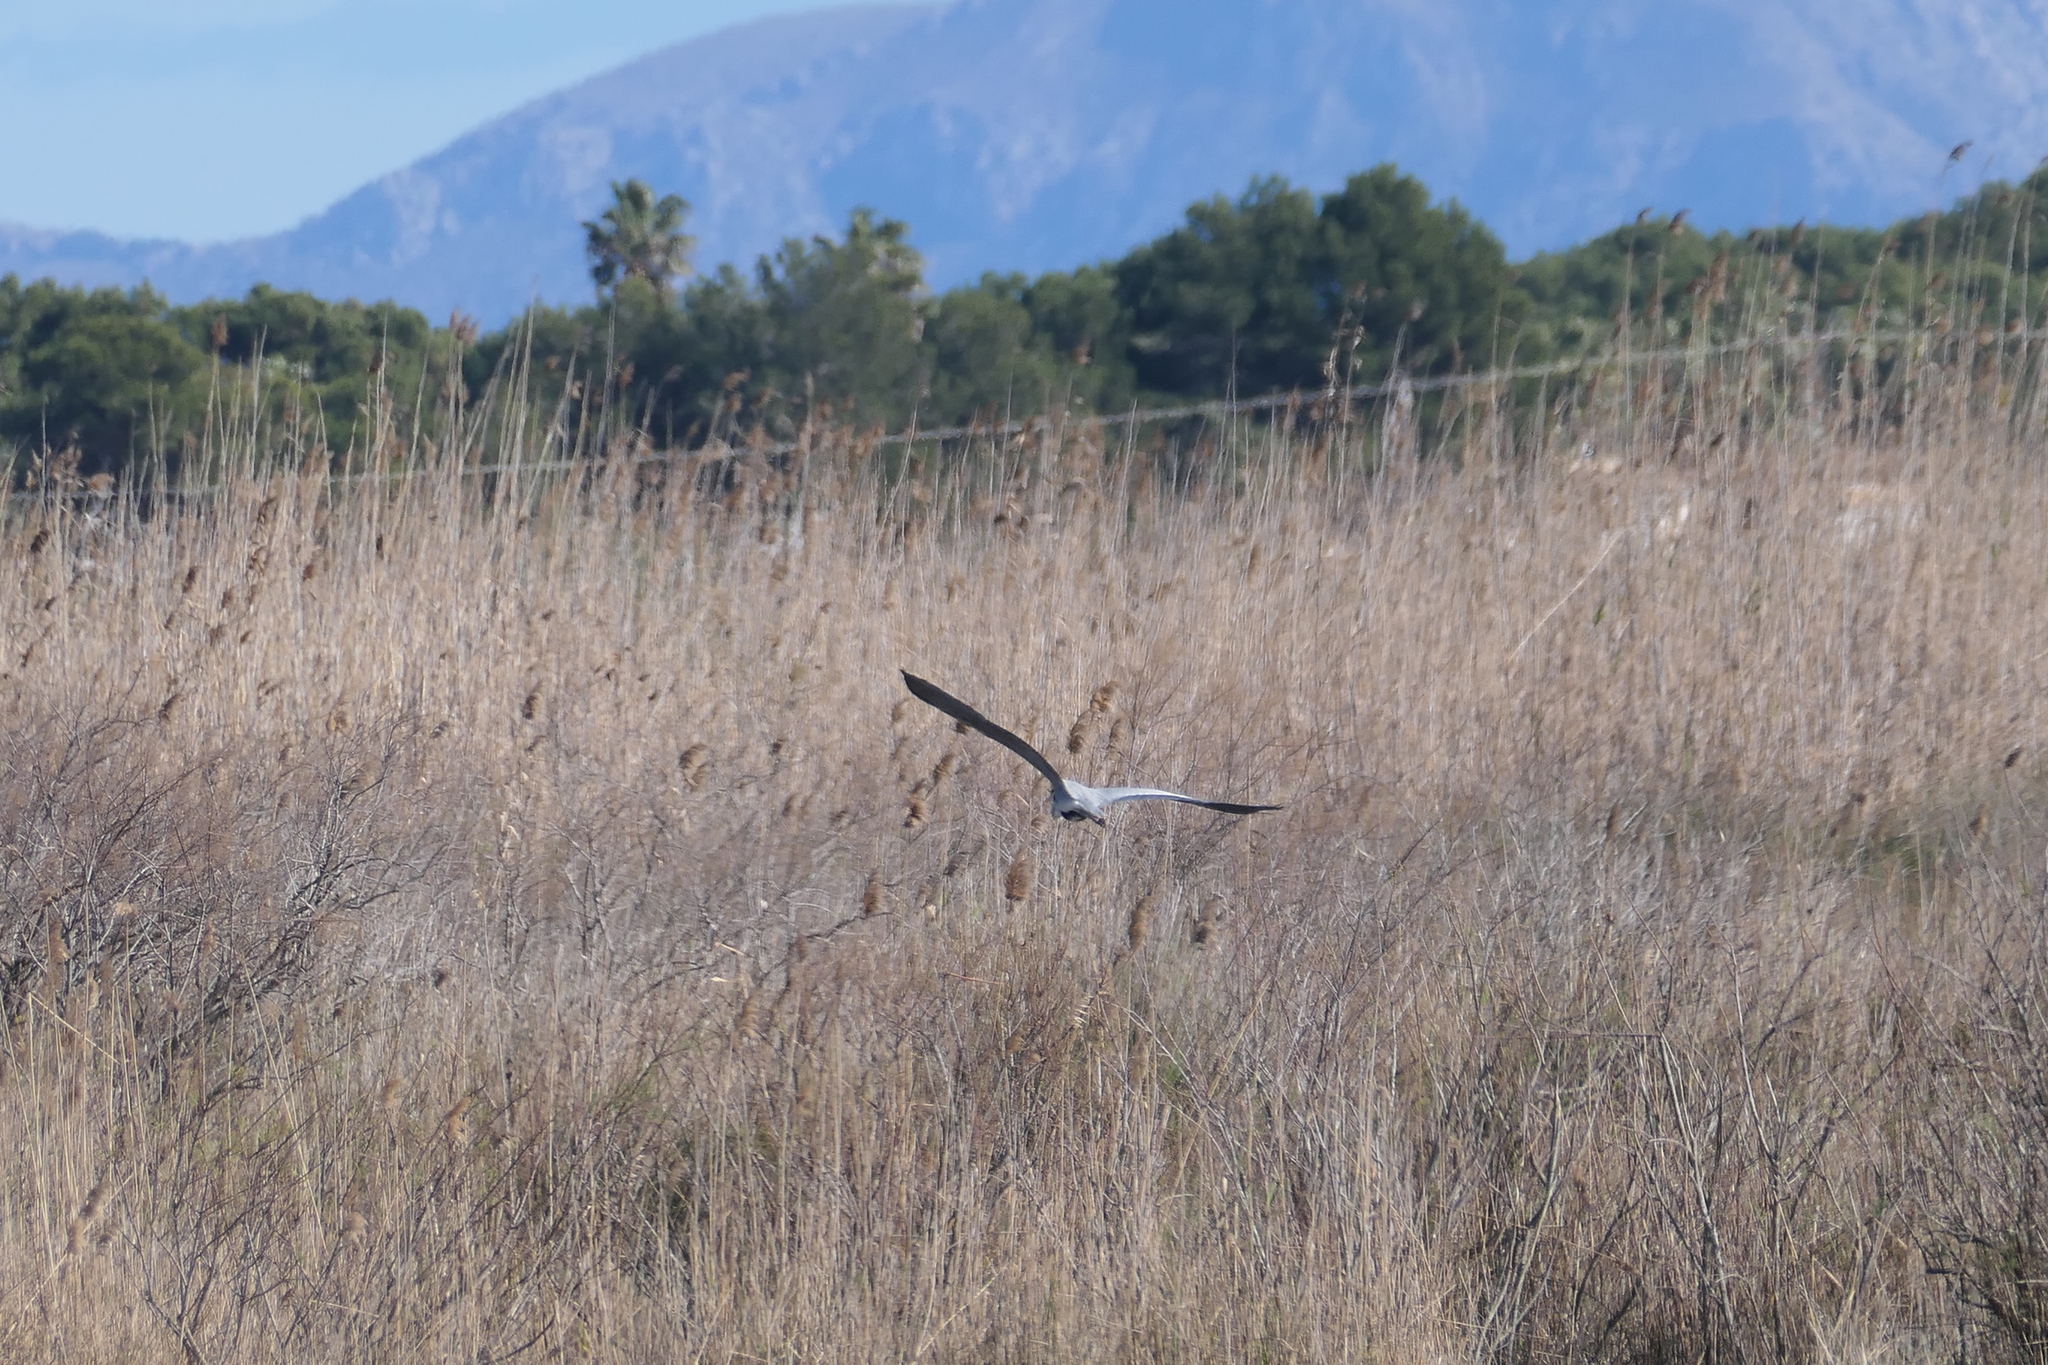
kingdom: Animalia
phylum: Chordata
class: Aves
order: Pelecaniformes
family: Ardeidae
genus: Ardea
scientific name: Ardea cinerea
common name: Grey heron
